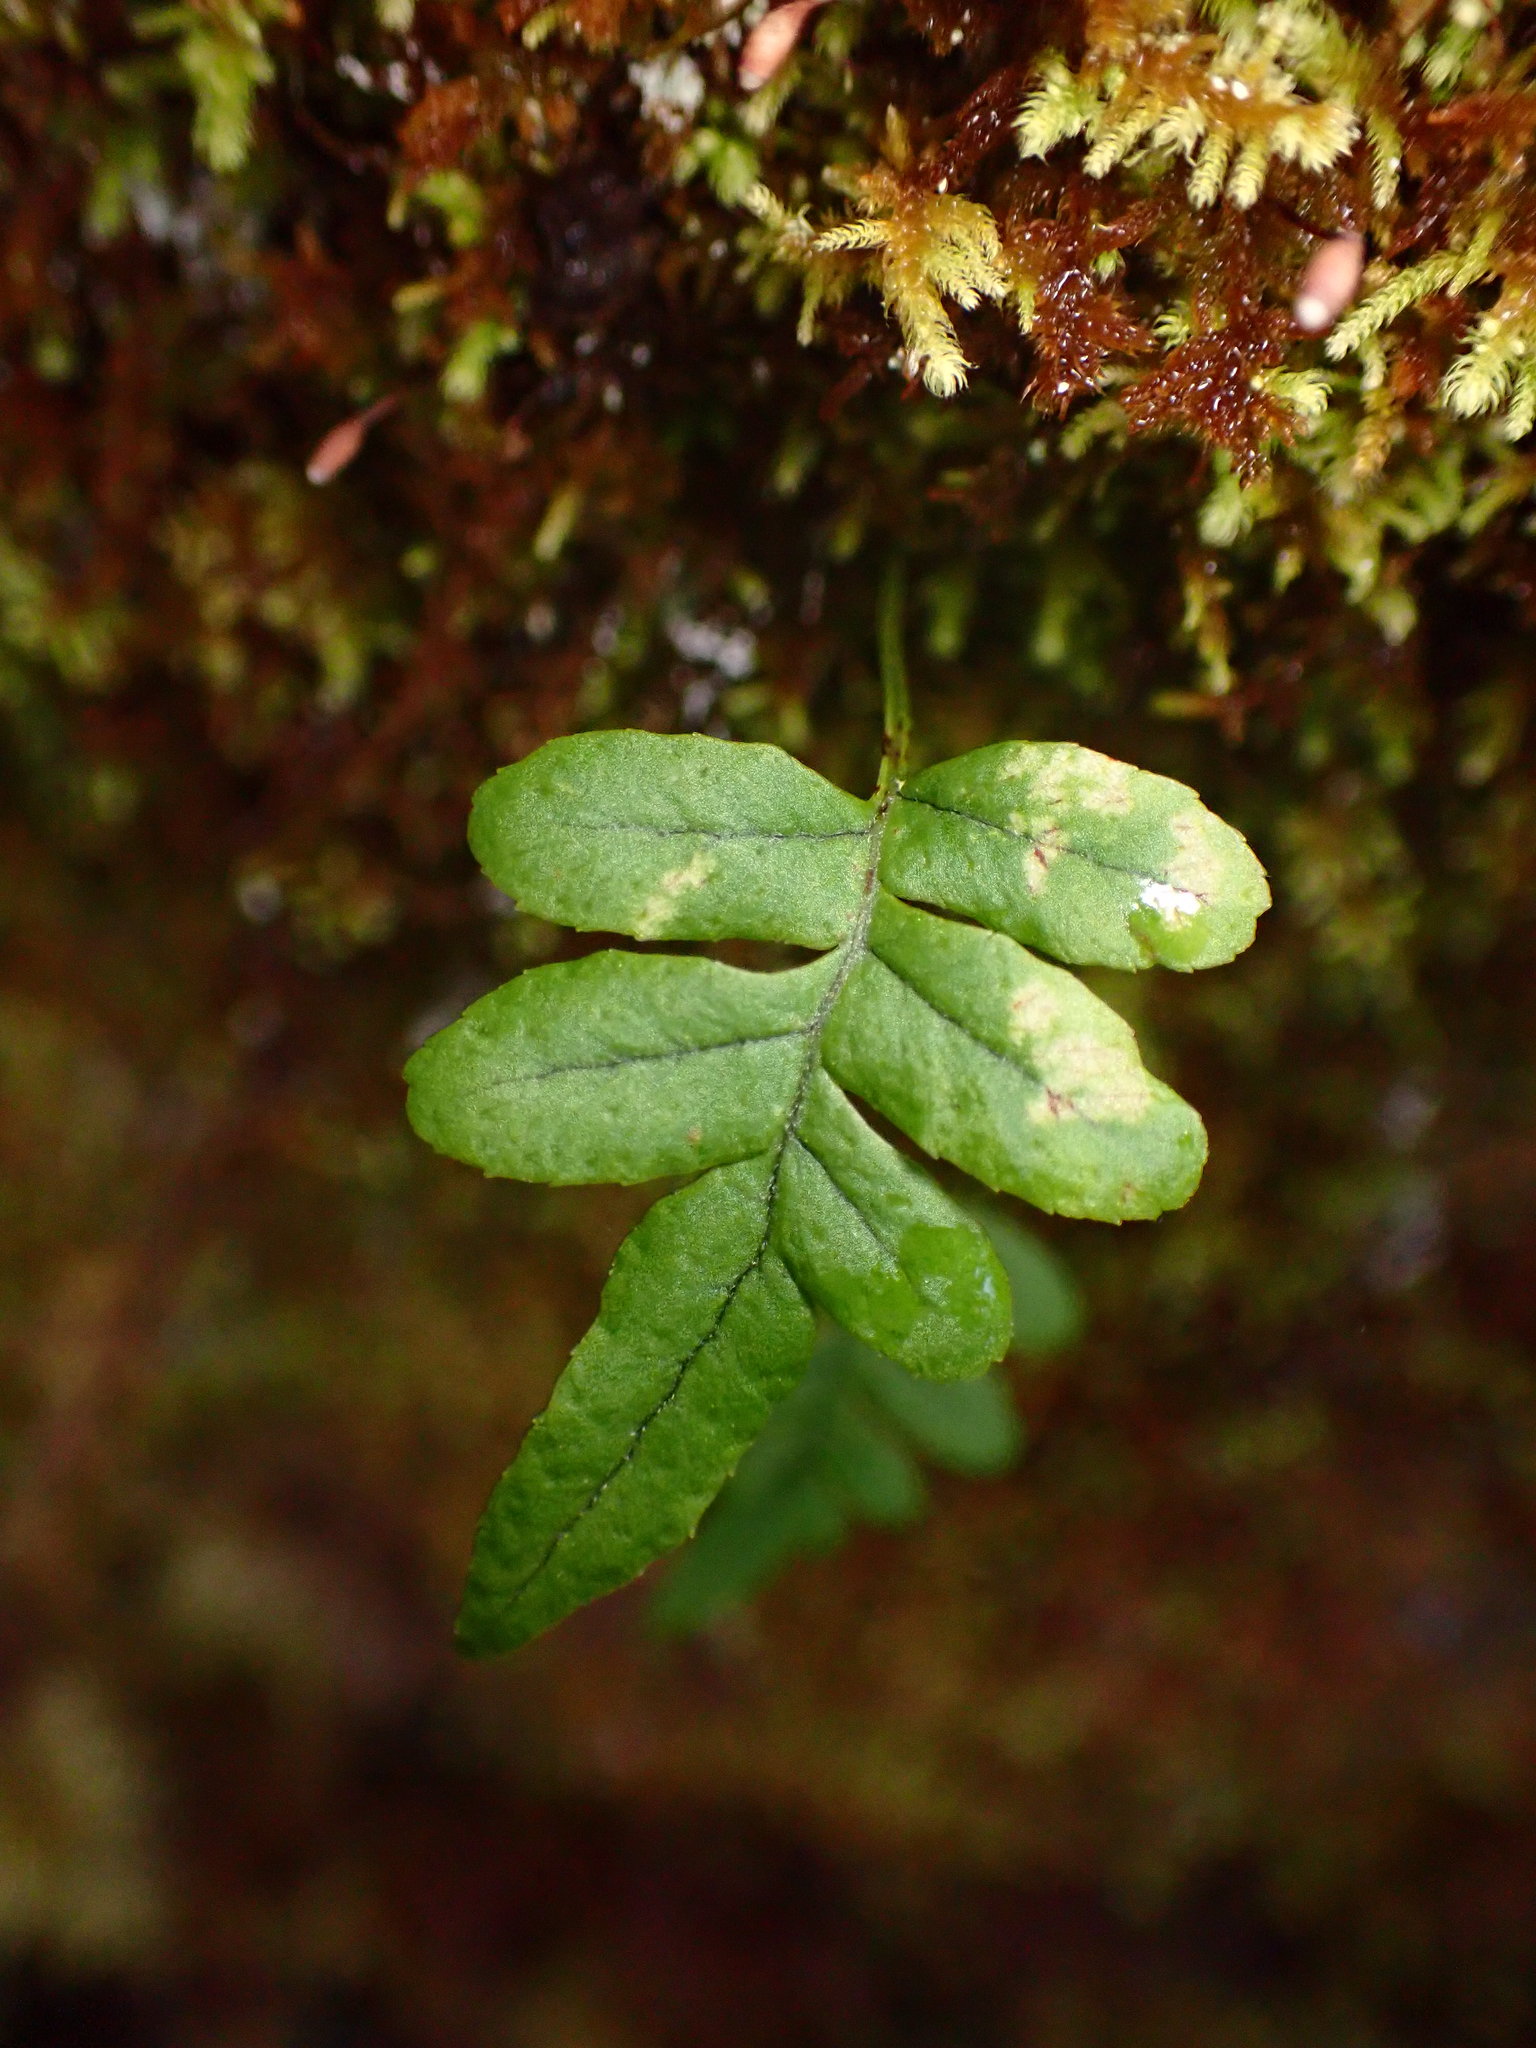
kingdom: Plantae
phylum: Tracheophyta
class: Polypodiopsida
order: Polypodiales
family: Polypodiaceae
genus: Polypodium
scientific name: Polypodium glycyrrhiza
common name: Licorice fern
